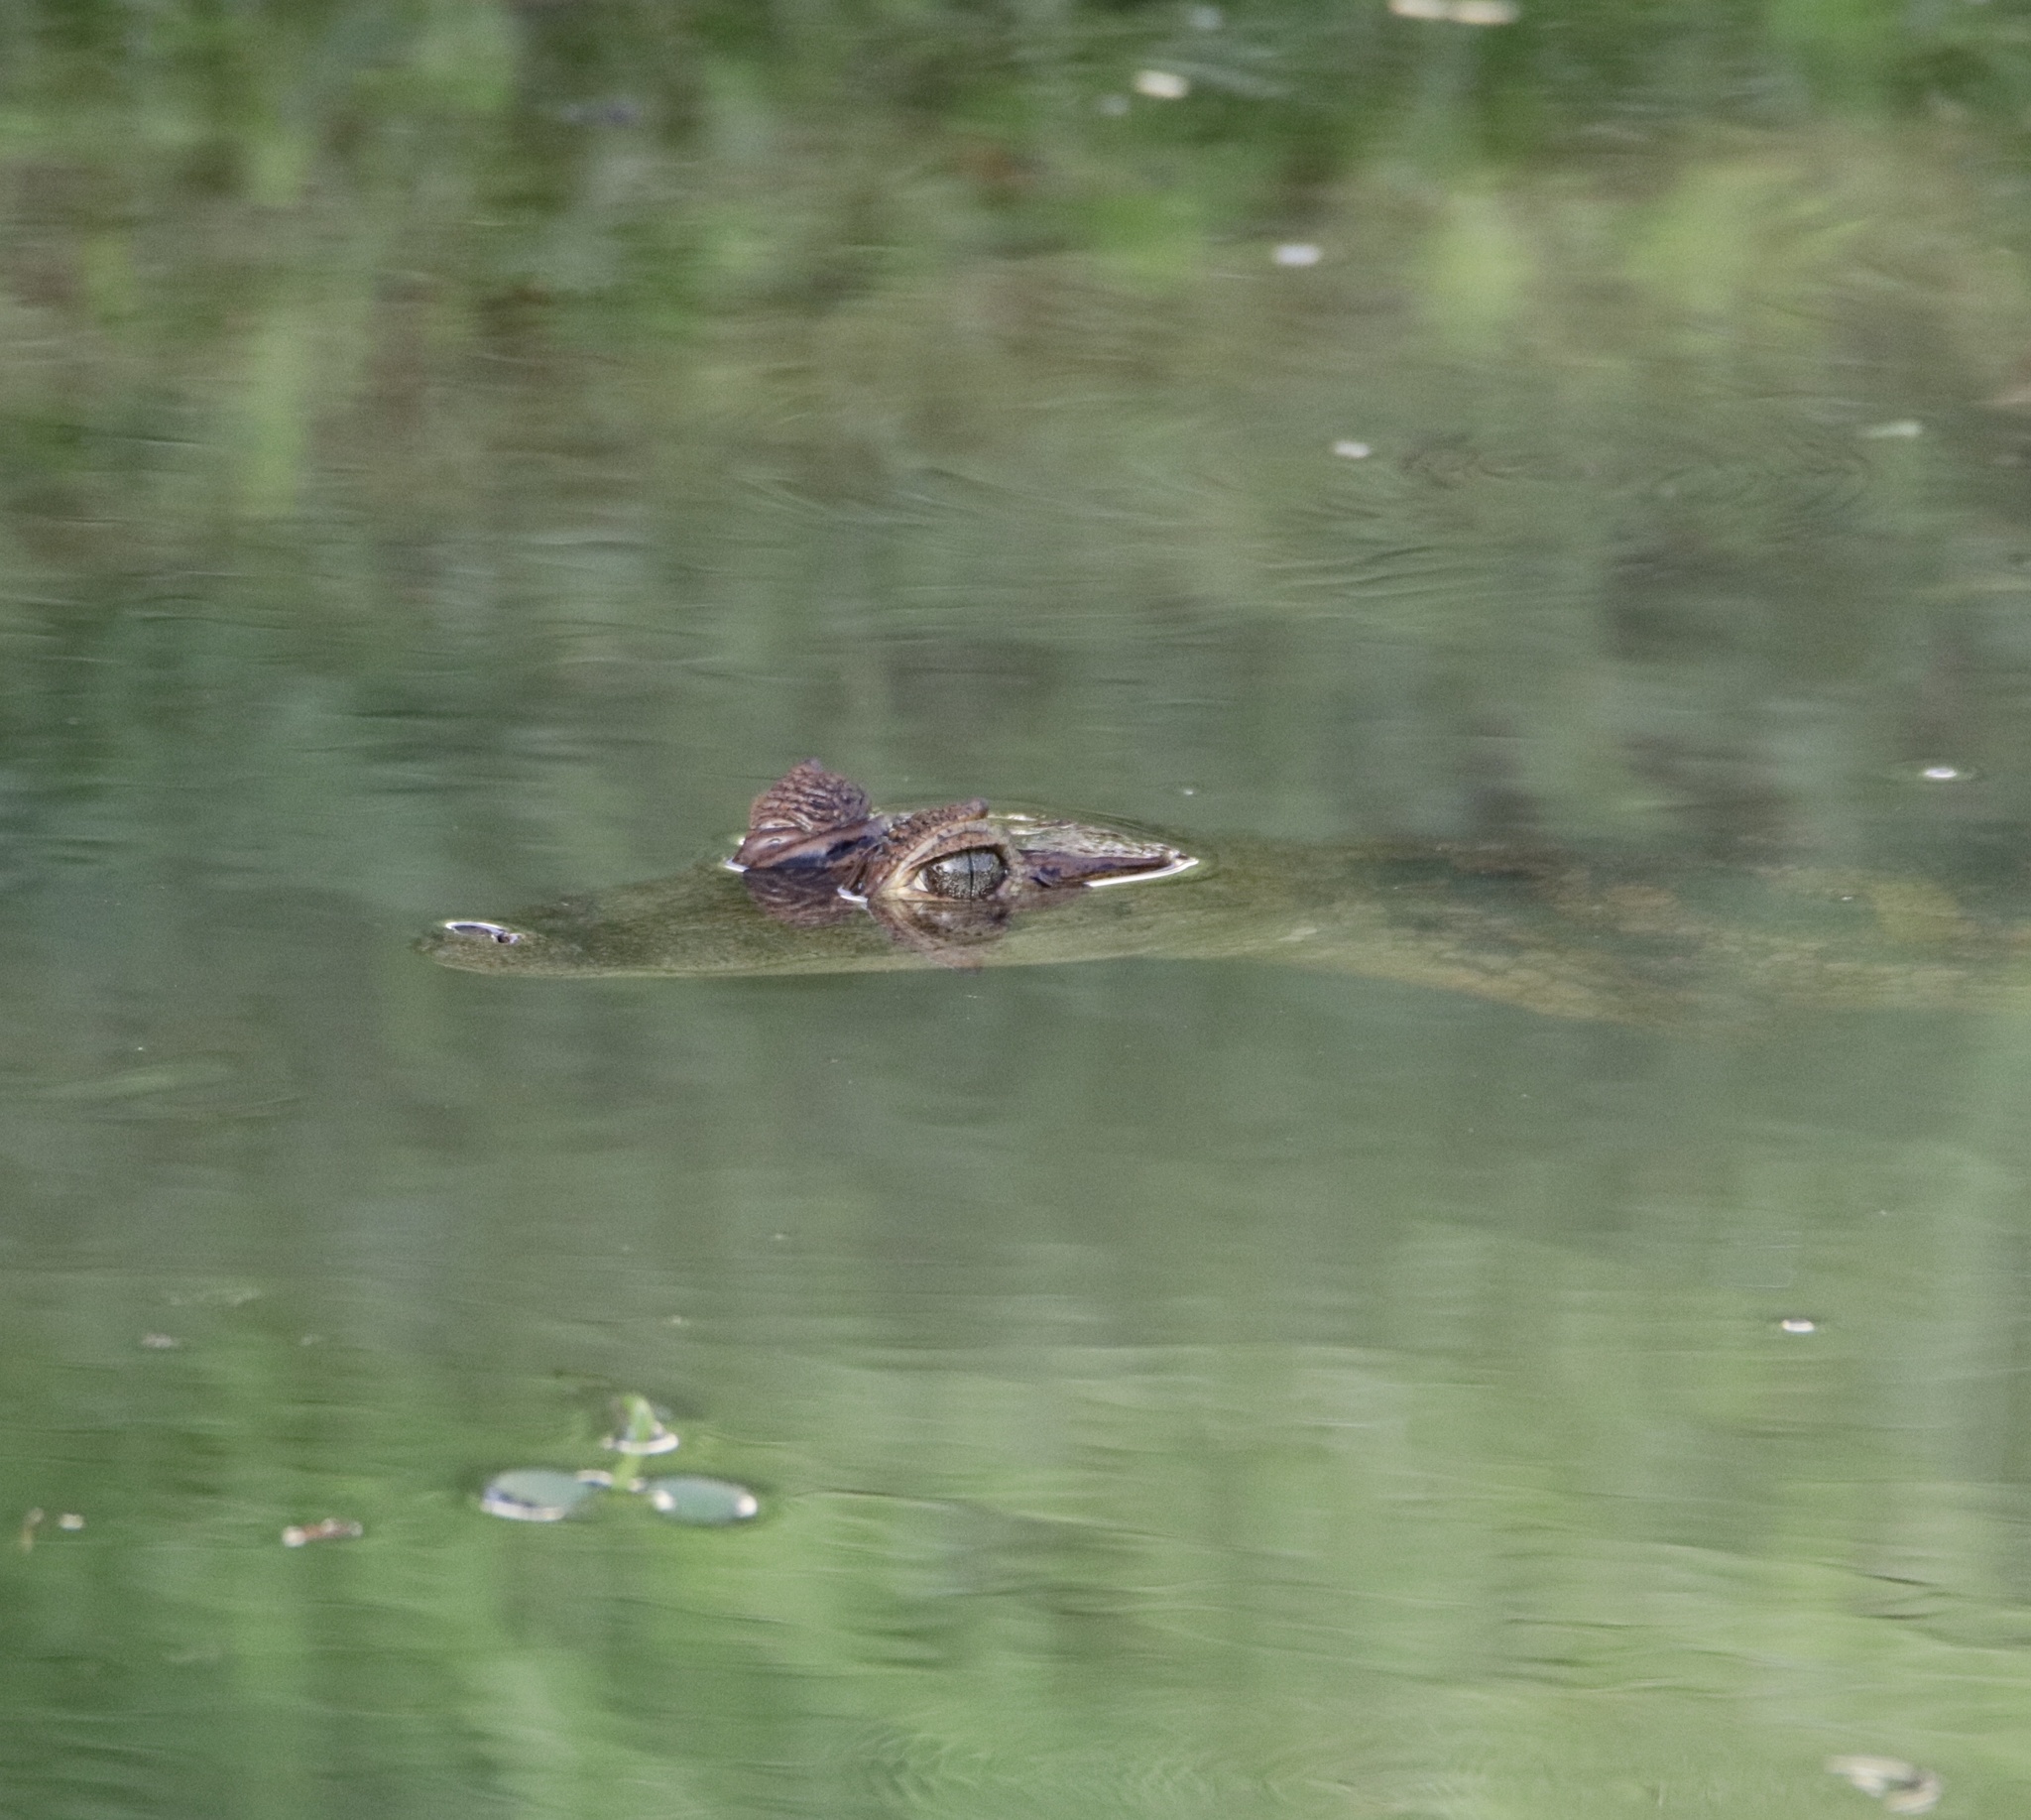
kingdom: Animalia
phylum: Chordata
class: Crocodylia
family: Alligatoridae
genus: Caiman
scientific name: Caiman crocodilus
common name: Common caiman
